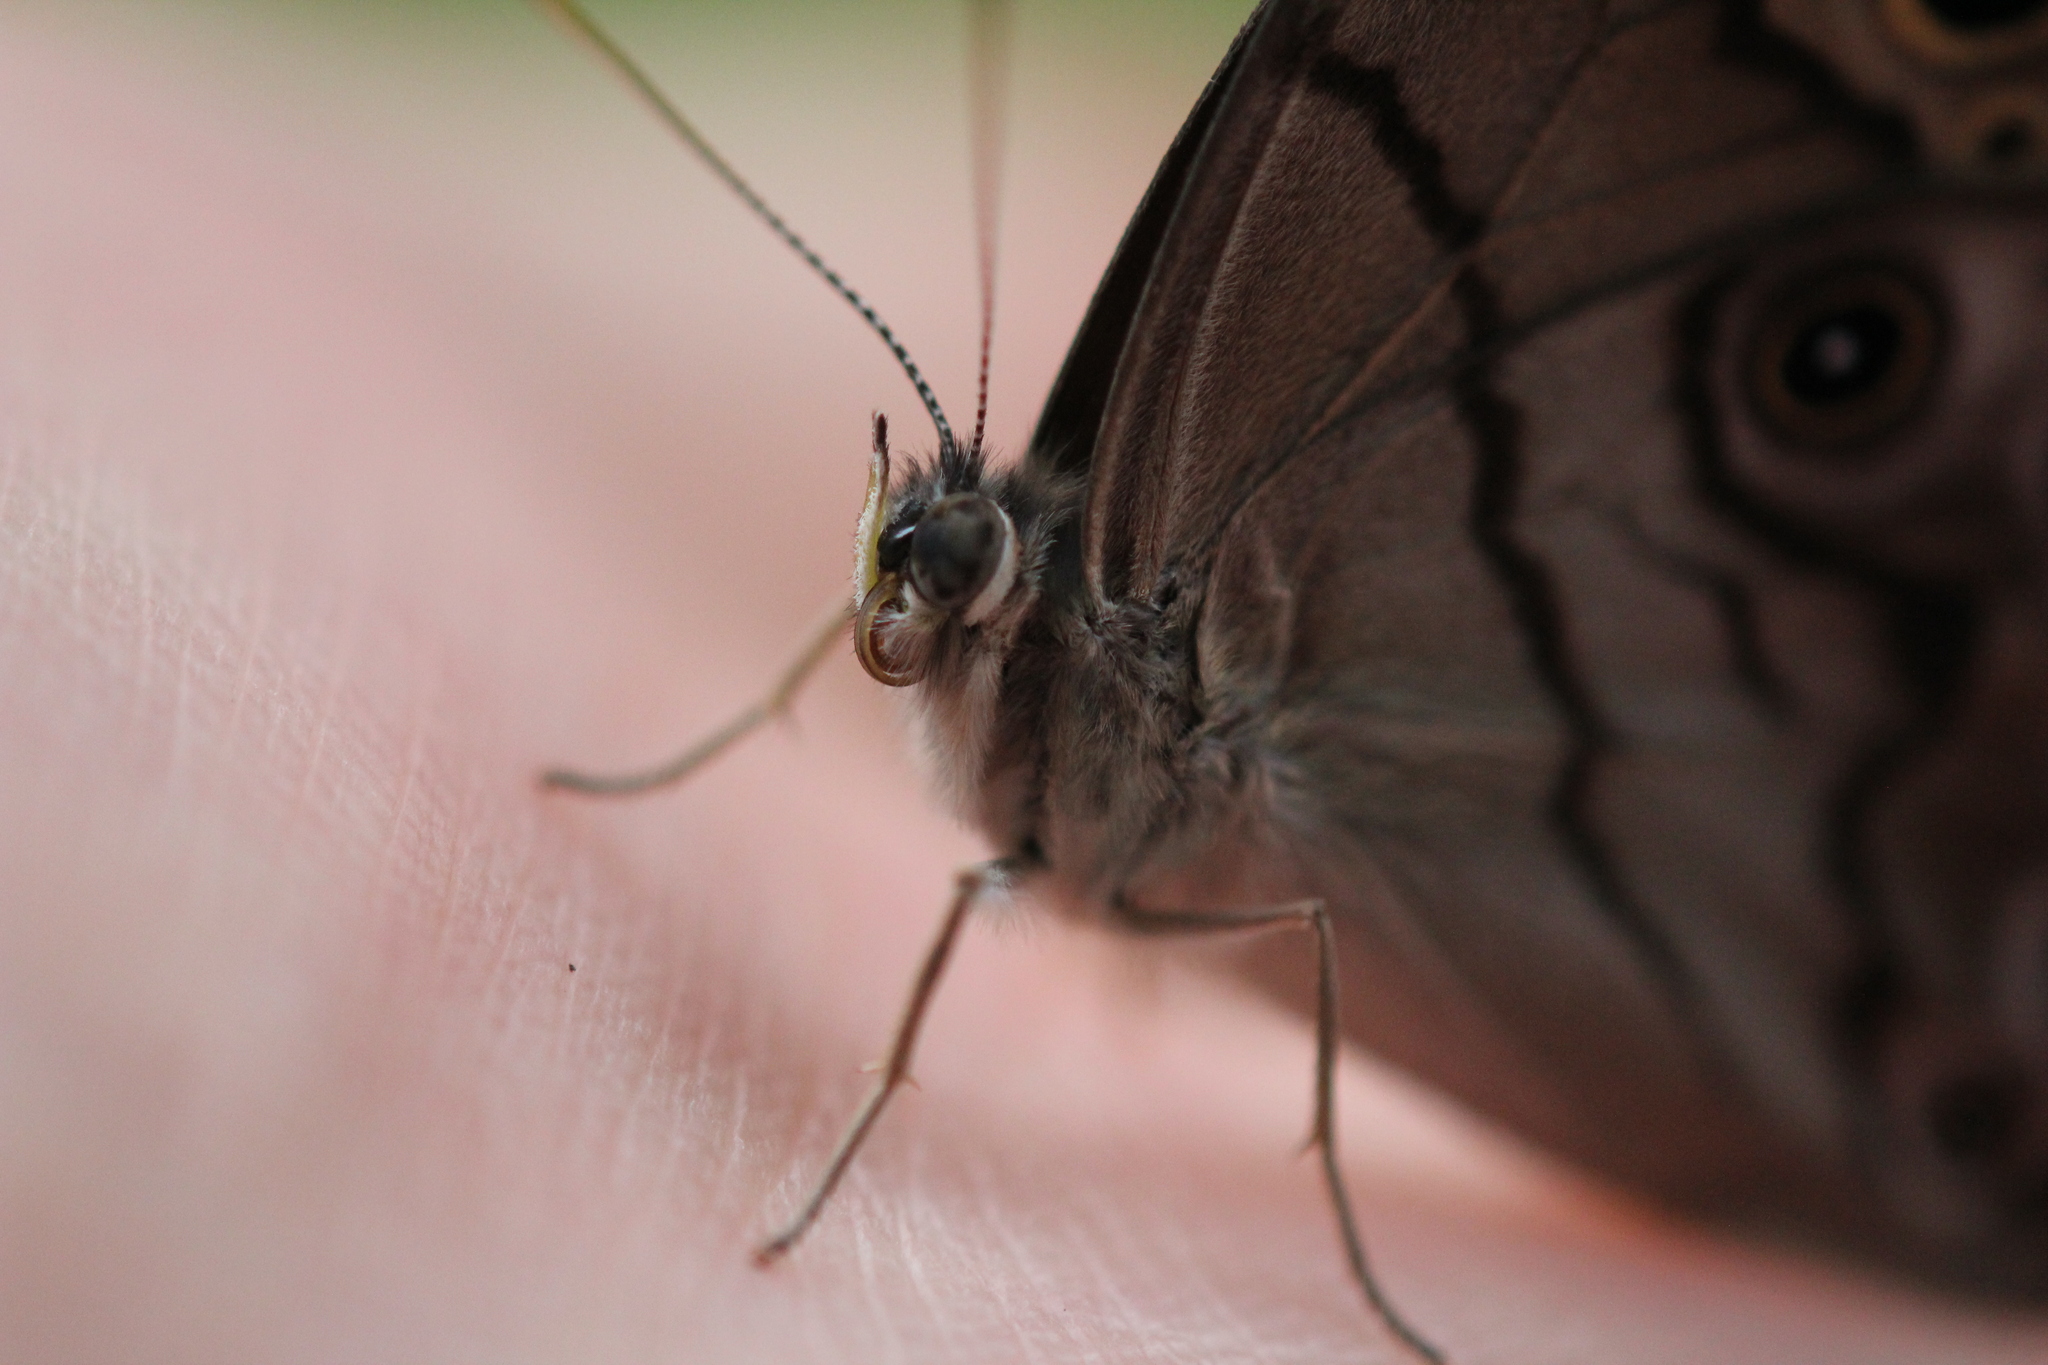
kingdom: Animalia
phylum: Arthropoda
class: Insecta
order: Lepidoptera
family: Nymphalidae
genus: Lethe
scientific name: Lethe anthedon
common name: Northern pearly-eye
